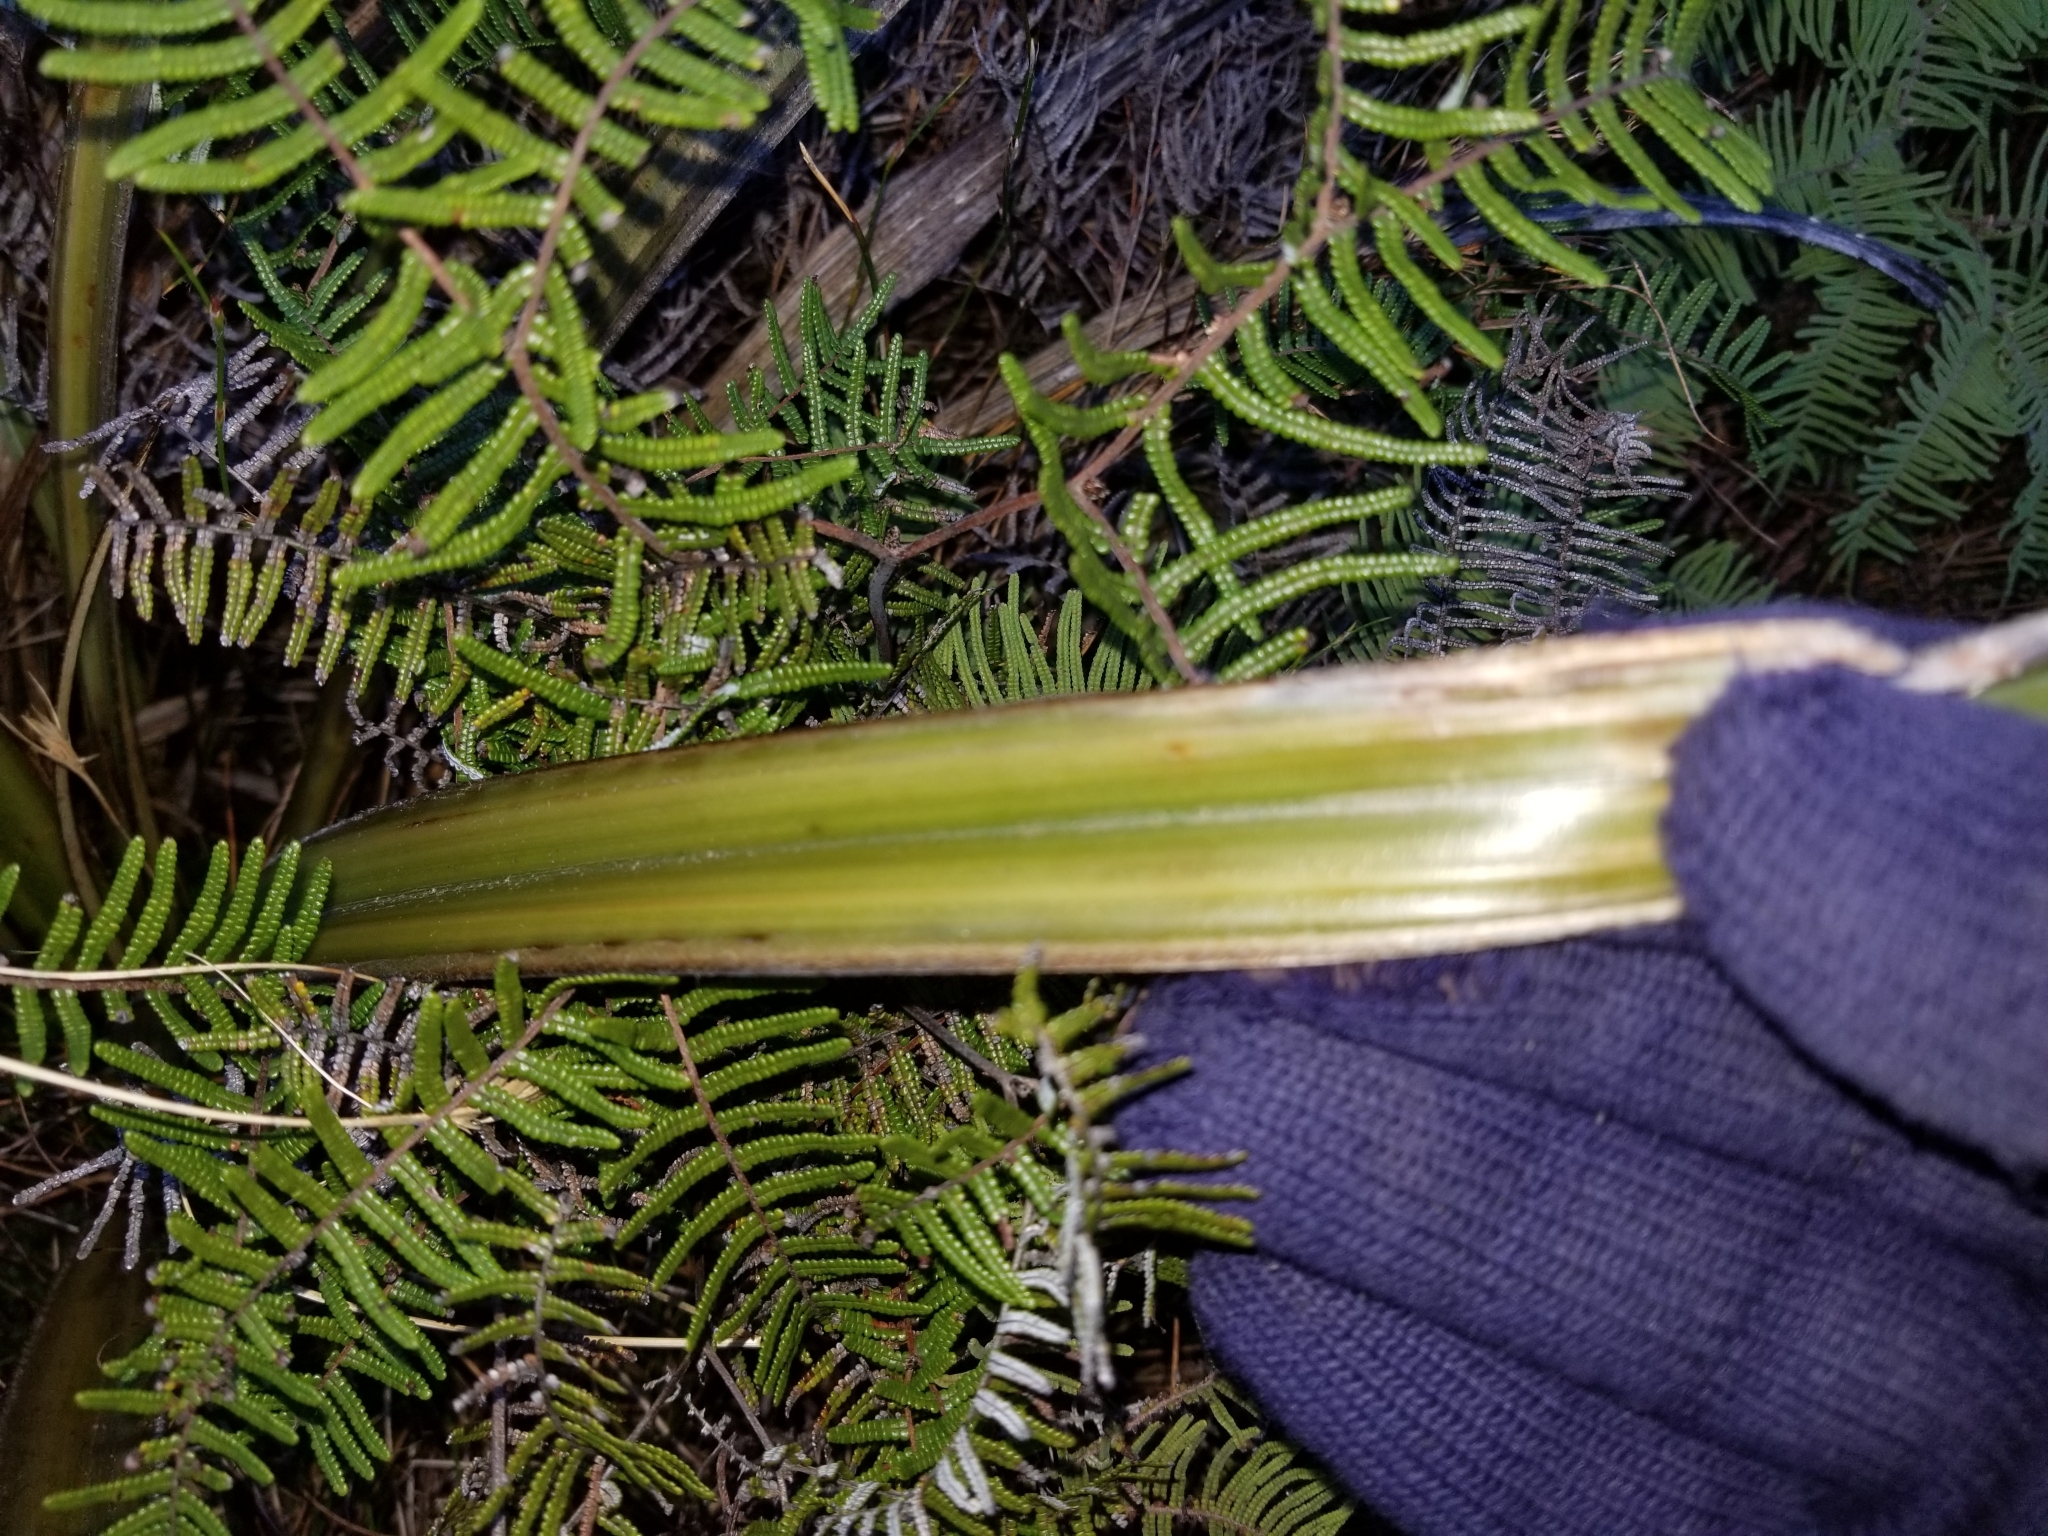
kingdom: Plantae
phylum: Tracheophyta
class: Liliopsida
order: Asparagales
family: Asteliaceae
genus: Astelia
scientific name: Astelia nervosa
